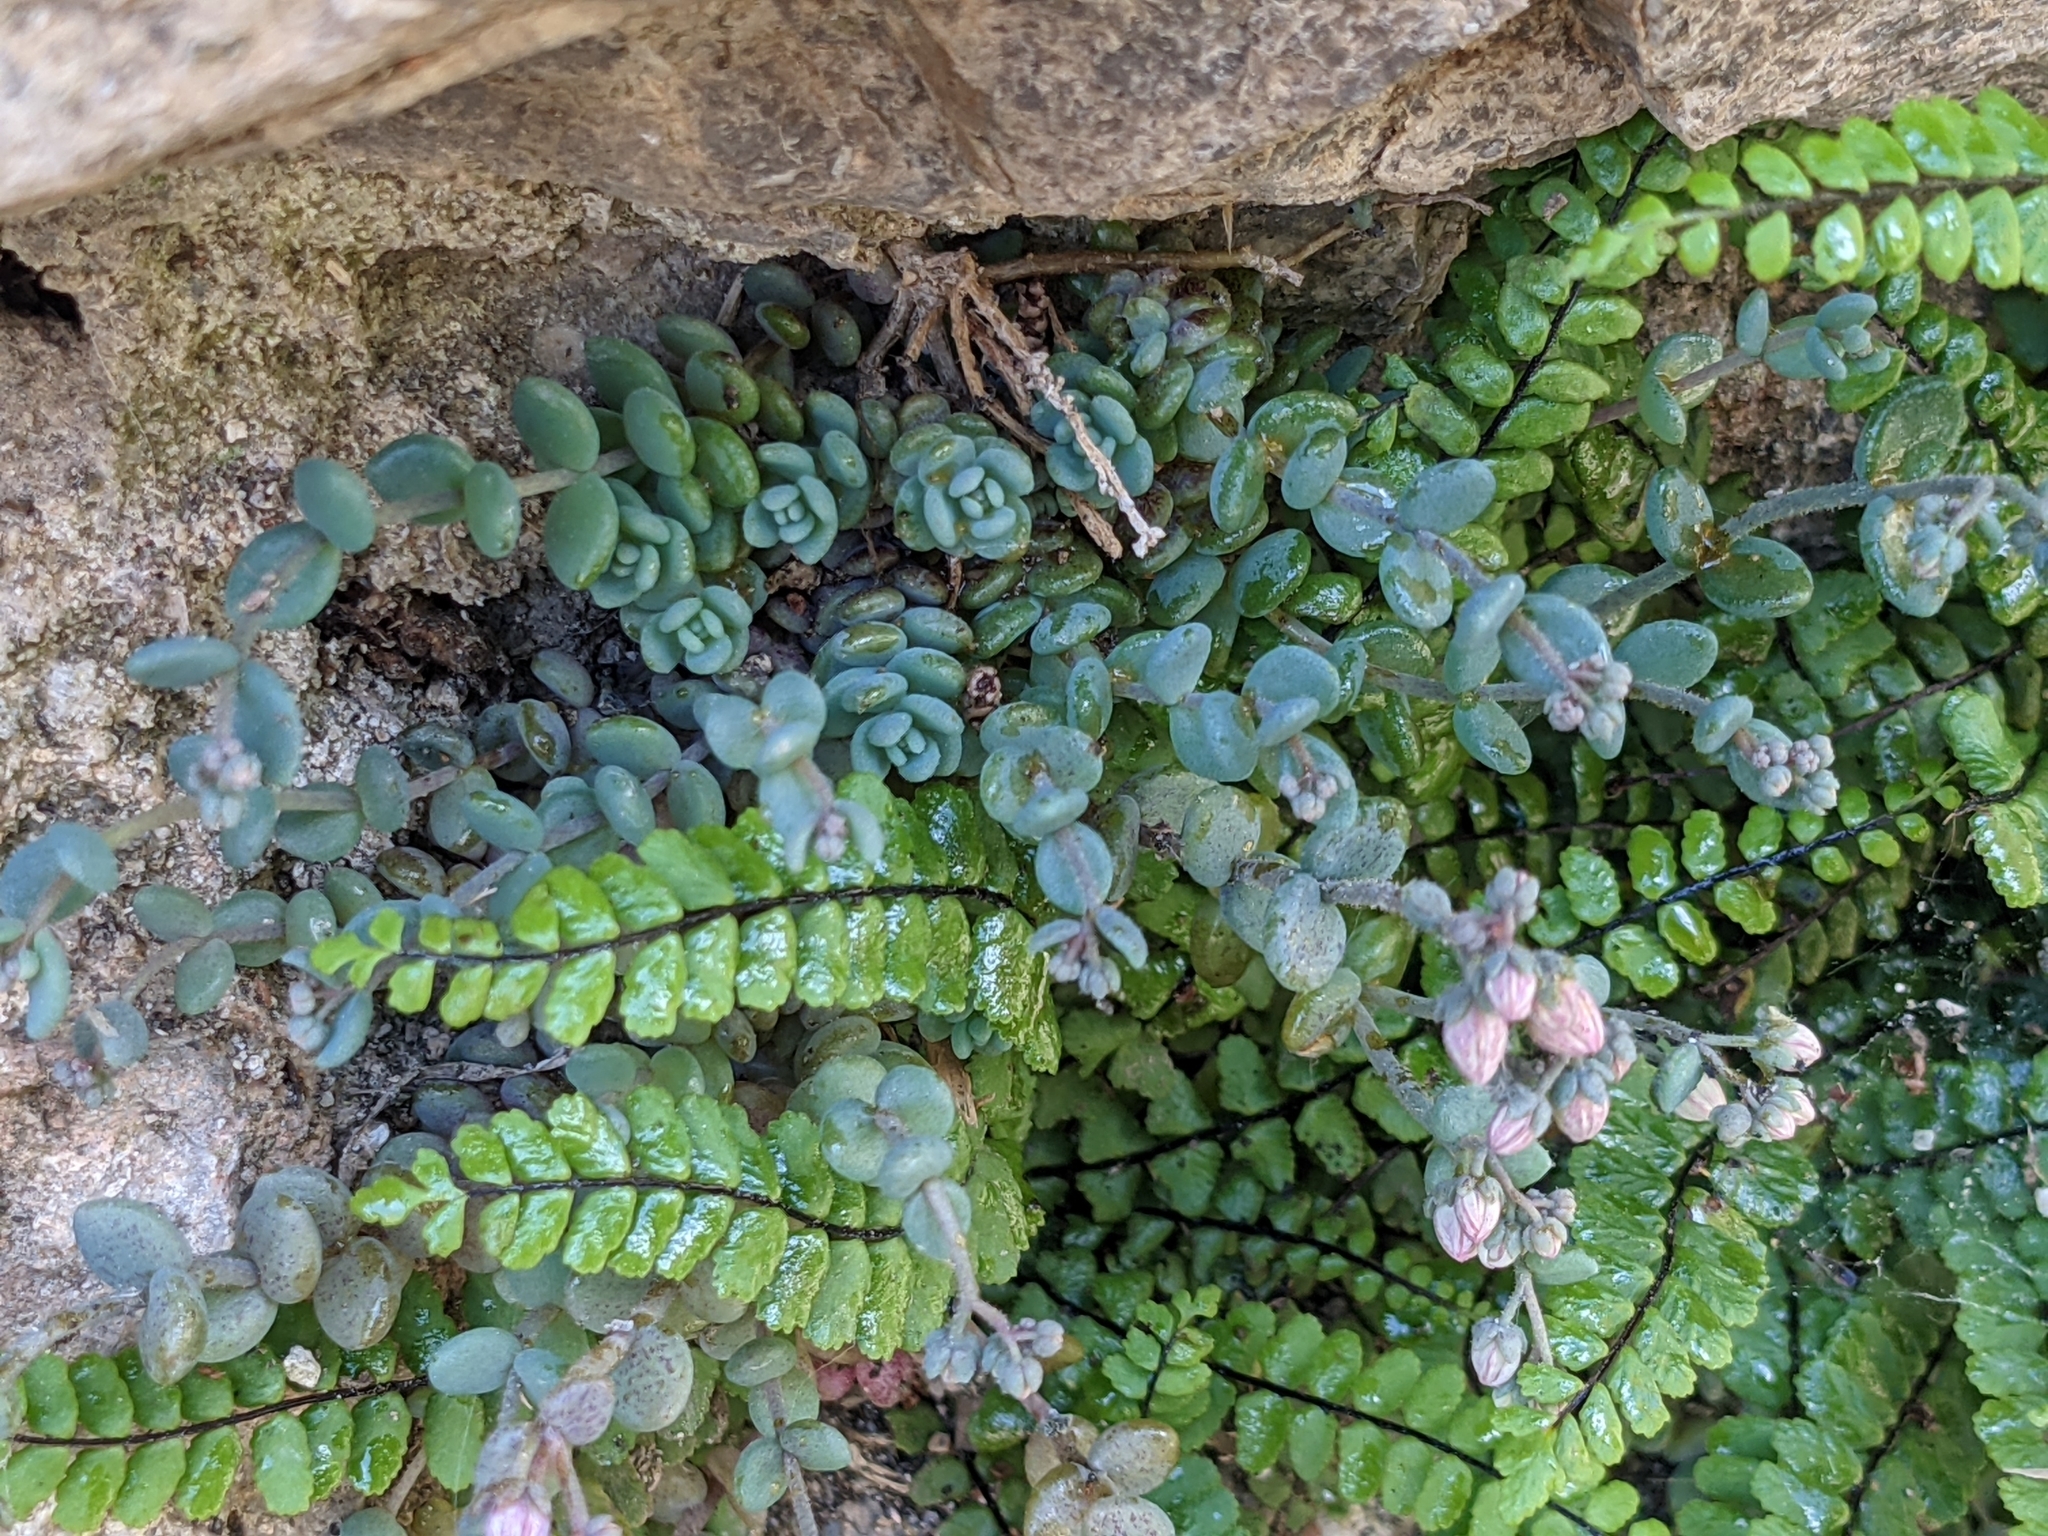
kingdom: Plantae
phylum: Tracheophyta
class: Magnoliopsida
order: Saxifragales
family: Crassulaceae
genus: Sedum
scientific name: Sedum dasyphyllum
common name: Thick-leaf stonecrop
